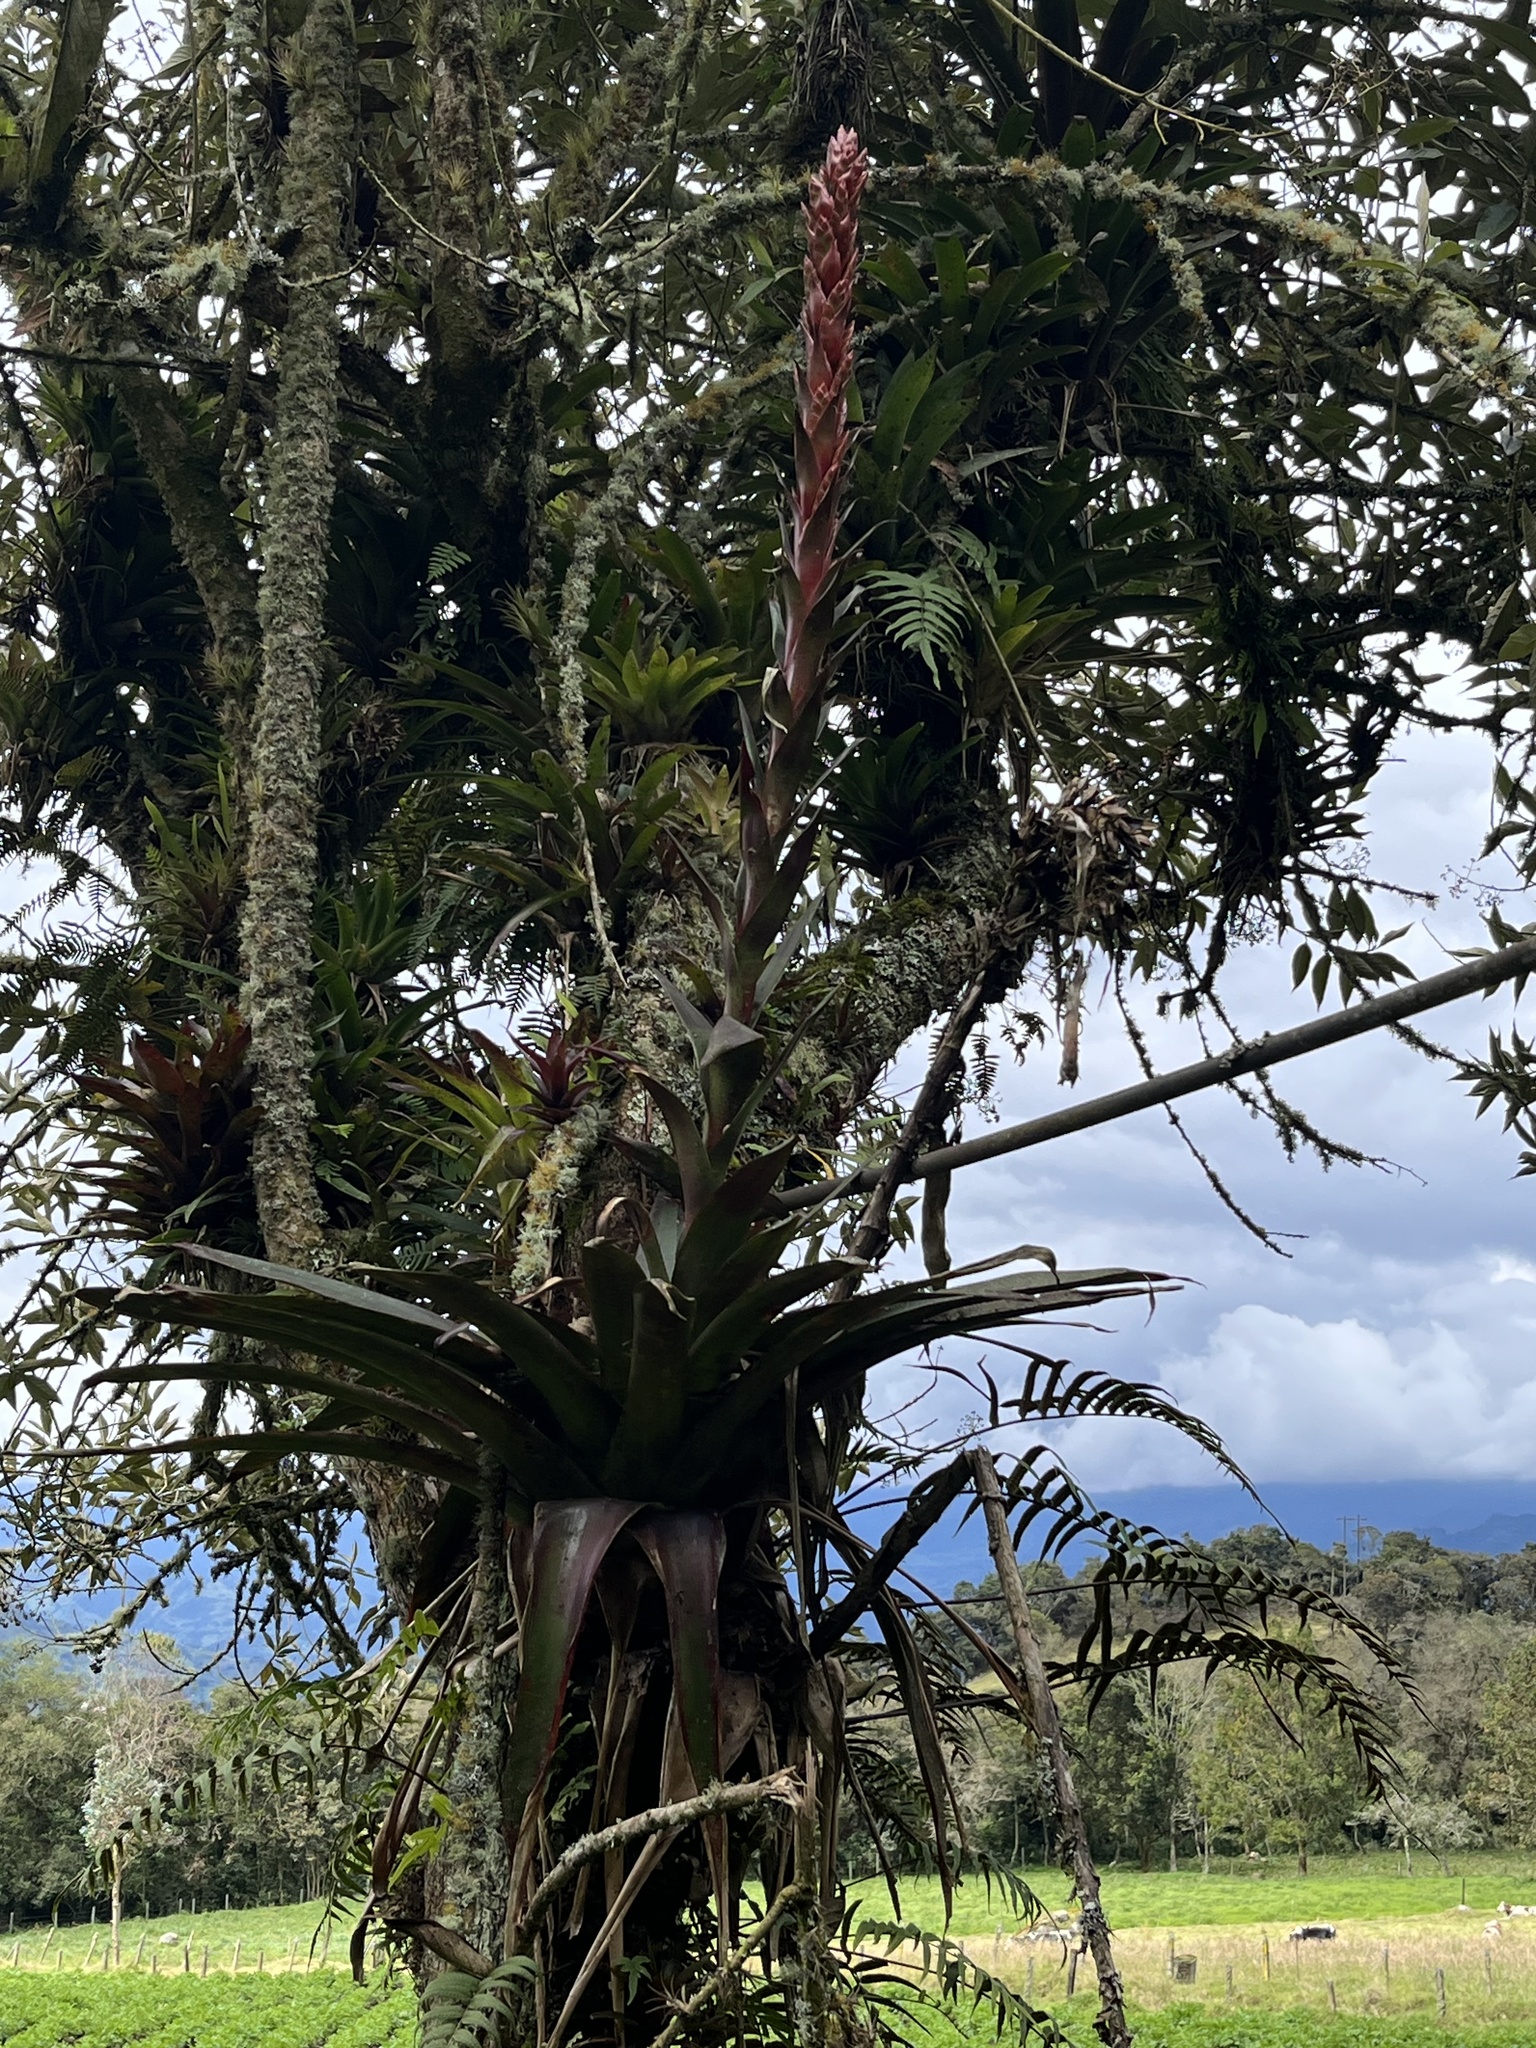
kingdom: Plantae
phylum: Tracheophyta
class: Liliopsida
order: Poales
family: Bromeliaceae
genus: Tillandsia
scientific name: Tillandsia pastensis
